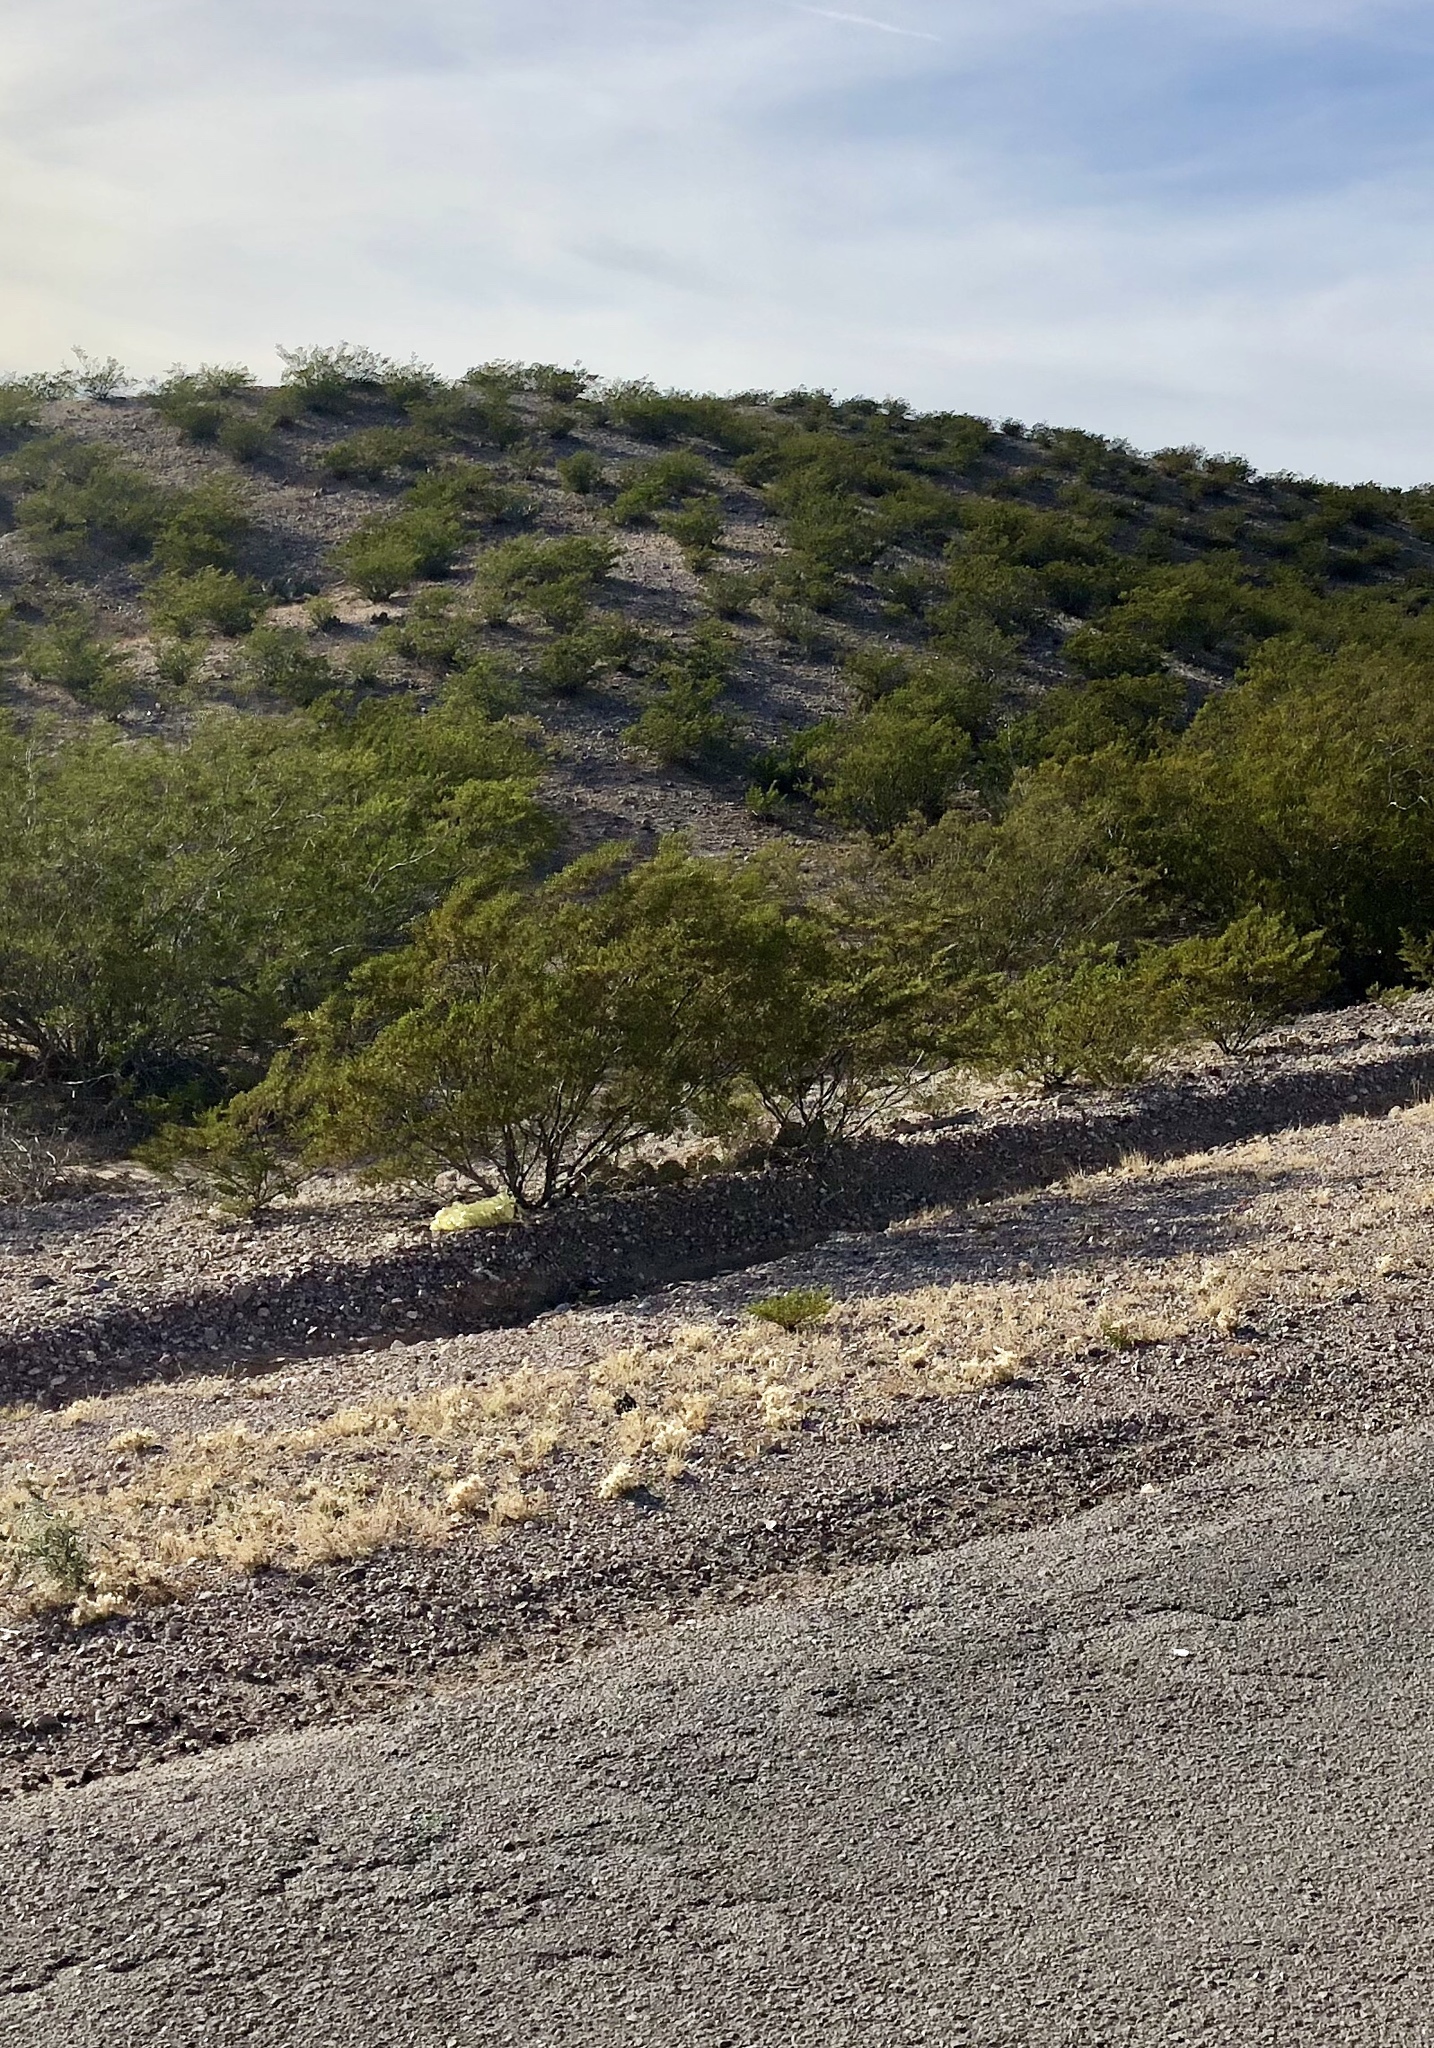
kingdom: Plantae
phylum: Tracheophyta
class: Magnoliopsida
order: Zygophyllales
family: Zygophyllaceae
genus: Larrea
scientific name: Larrea tridentata
